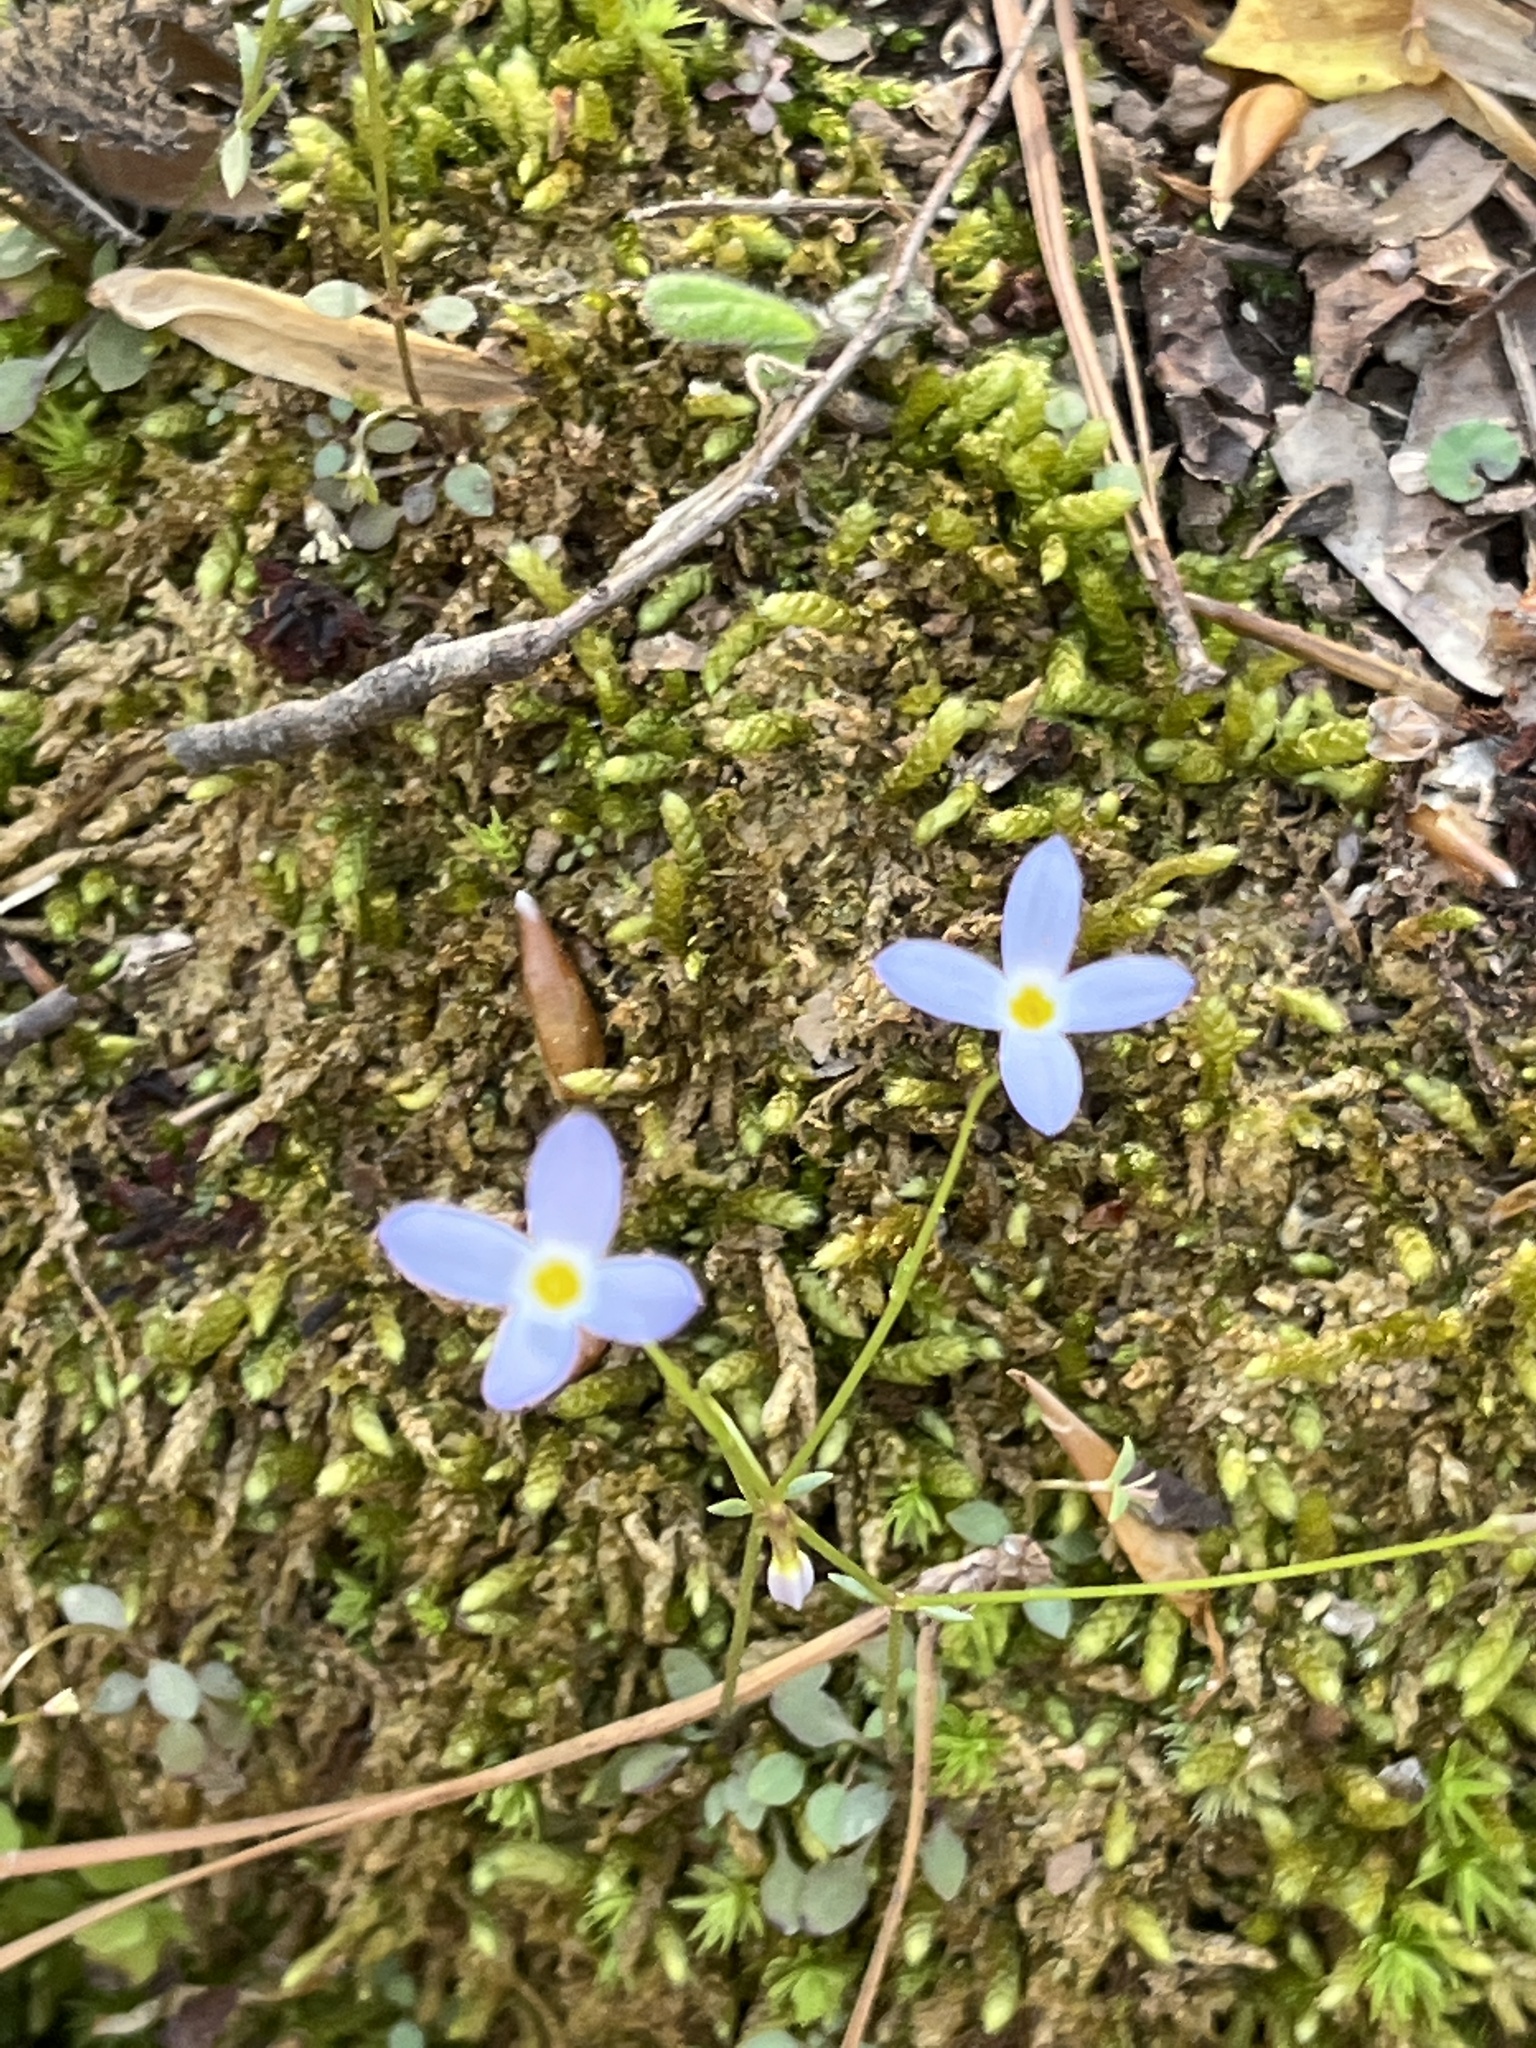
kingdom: Plantae
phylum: Tracheophyta
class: Magnoliopsida
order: Gentianales
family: Rubiaceae
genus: Houstonia
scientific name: Houstonia caerulea
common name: Bluets
